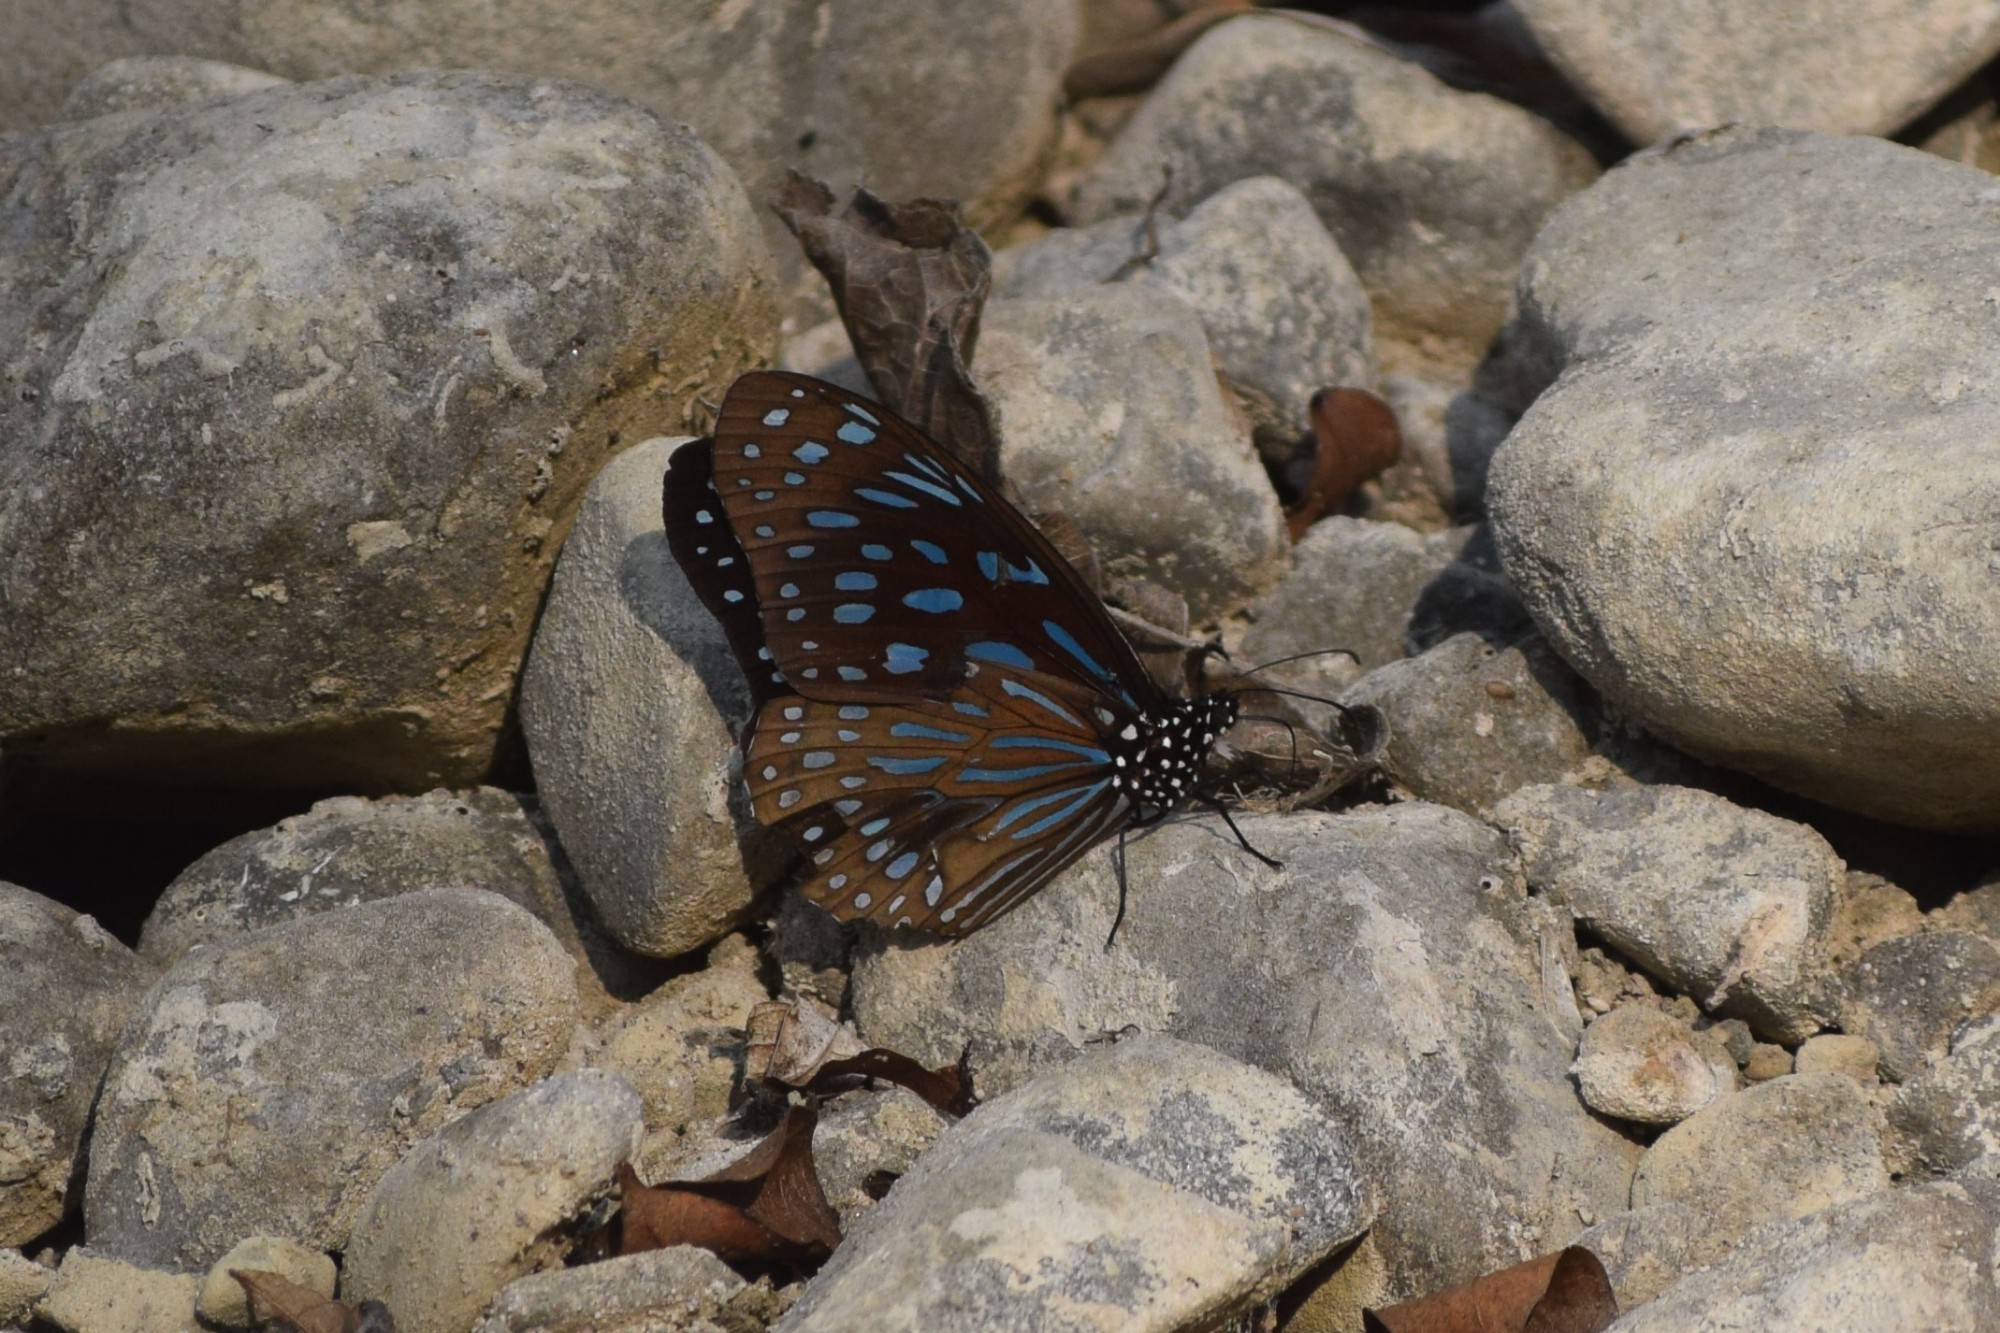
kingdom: Animalia
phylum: Arthropoda
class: Insecta
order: Lepidoptera
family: Nymphalidae
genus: Tirumala
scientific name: Tirumala septentrionis
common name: Dark blue tiger butterfly
